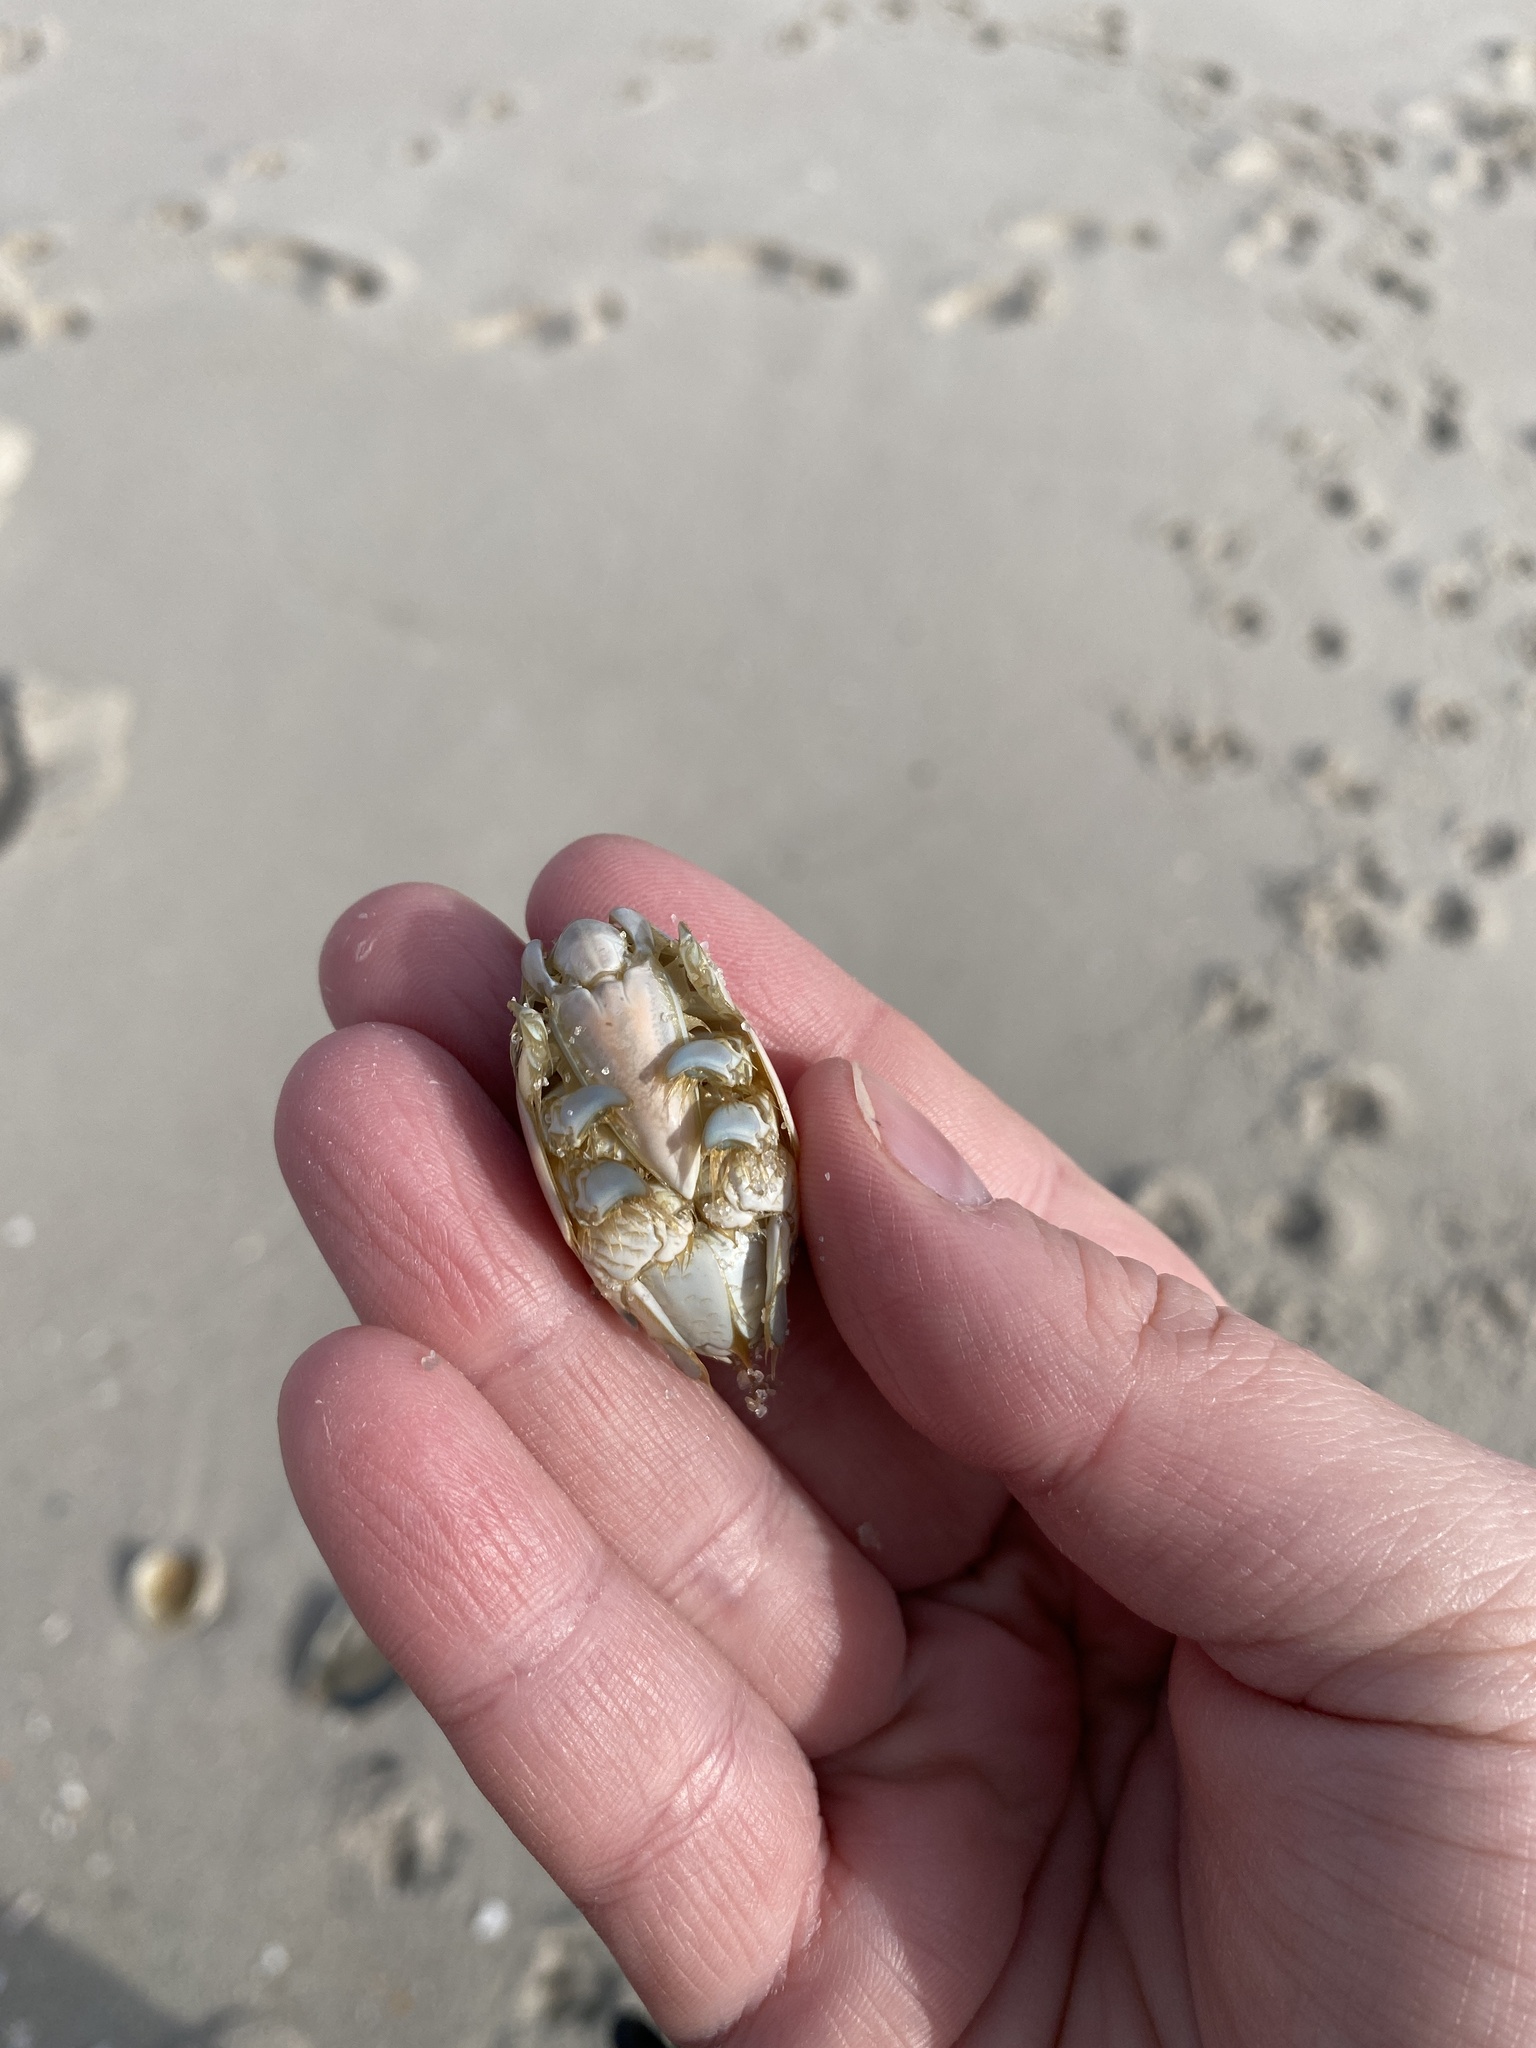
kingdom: Animalia
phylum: Arthropoda
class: Malacostraca
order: Decapoda
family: Hippidae
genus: Emerita
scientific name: Emerita talpoida
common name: Atlantic sand crab
